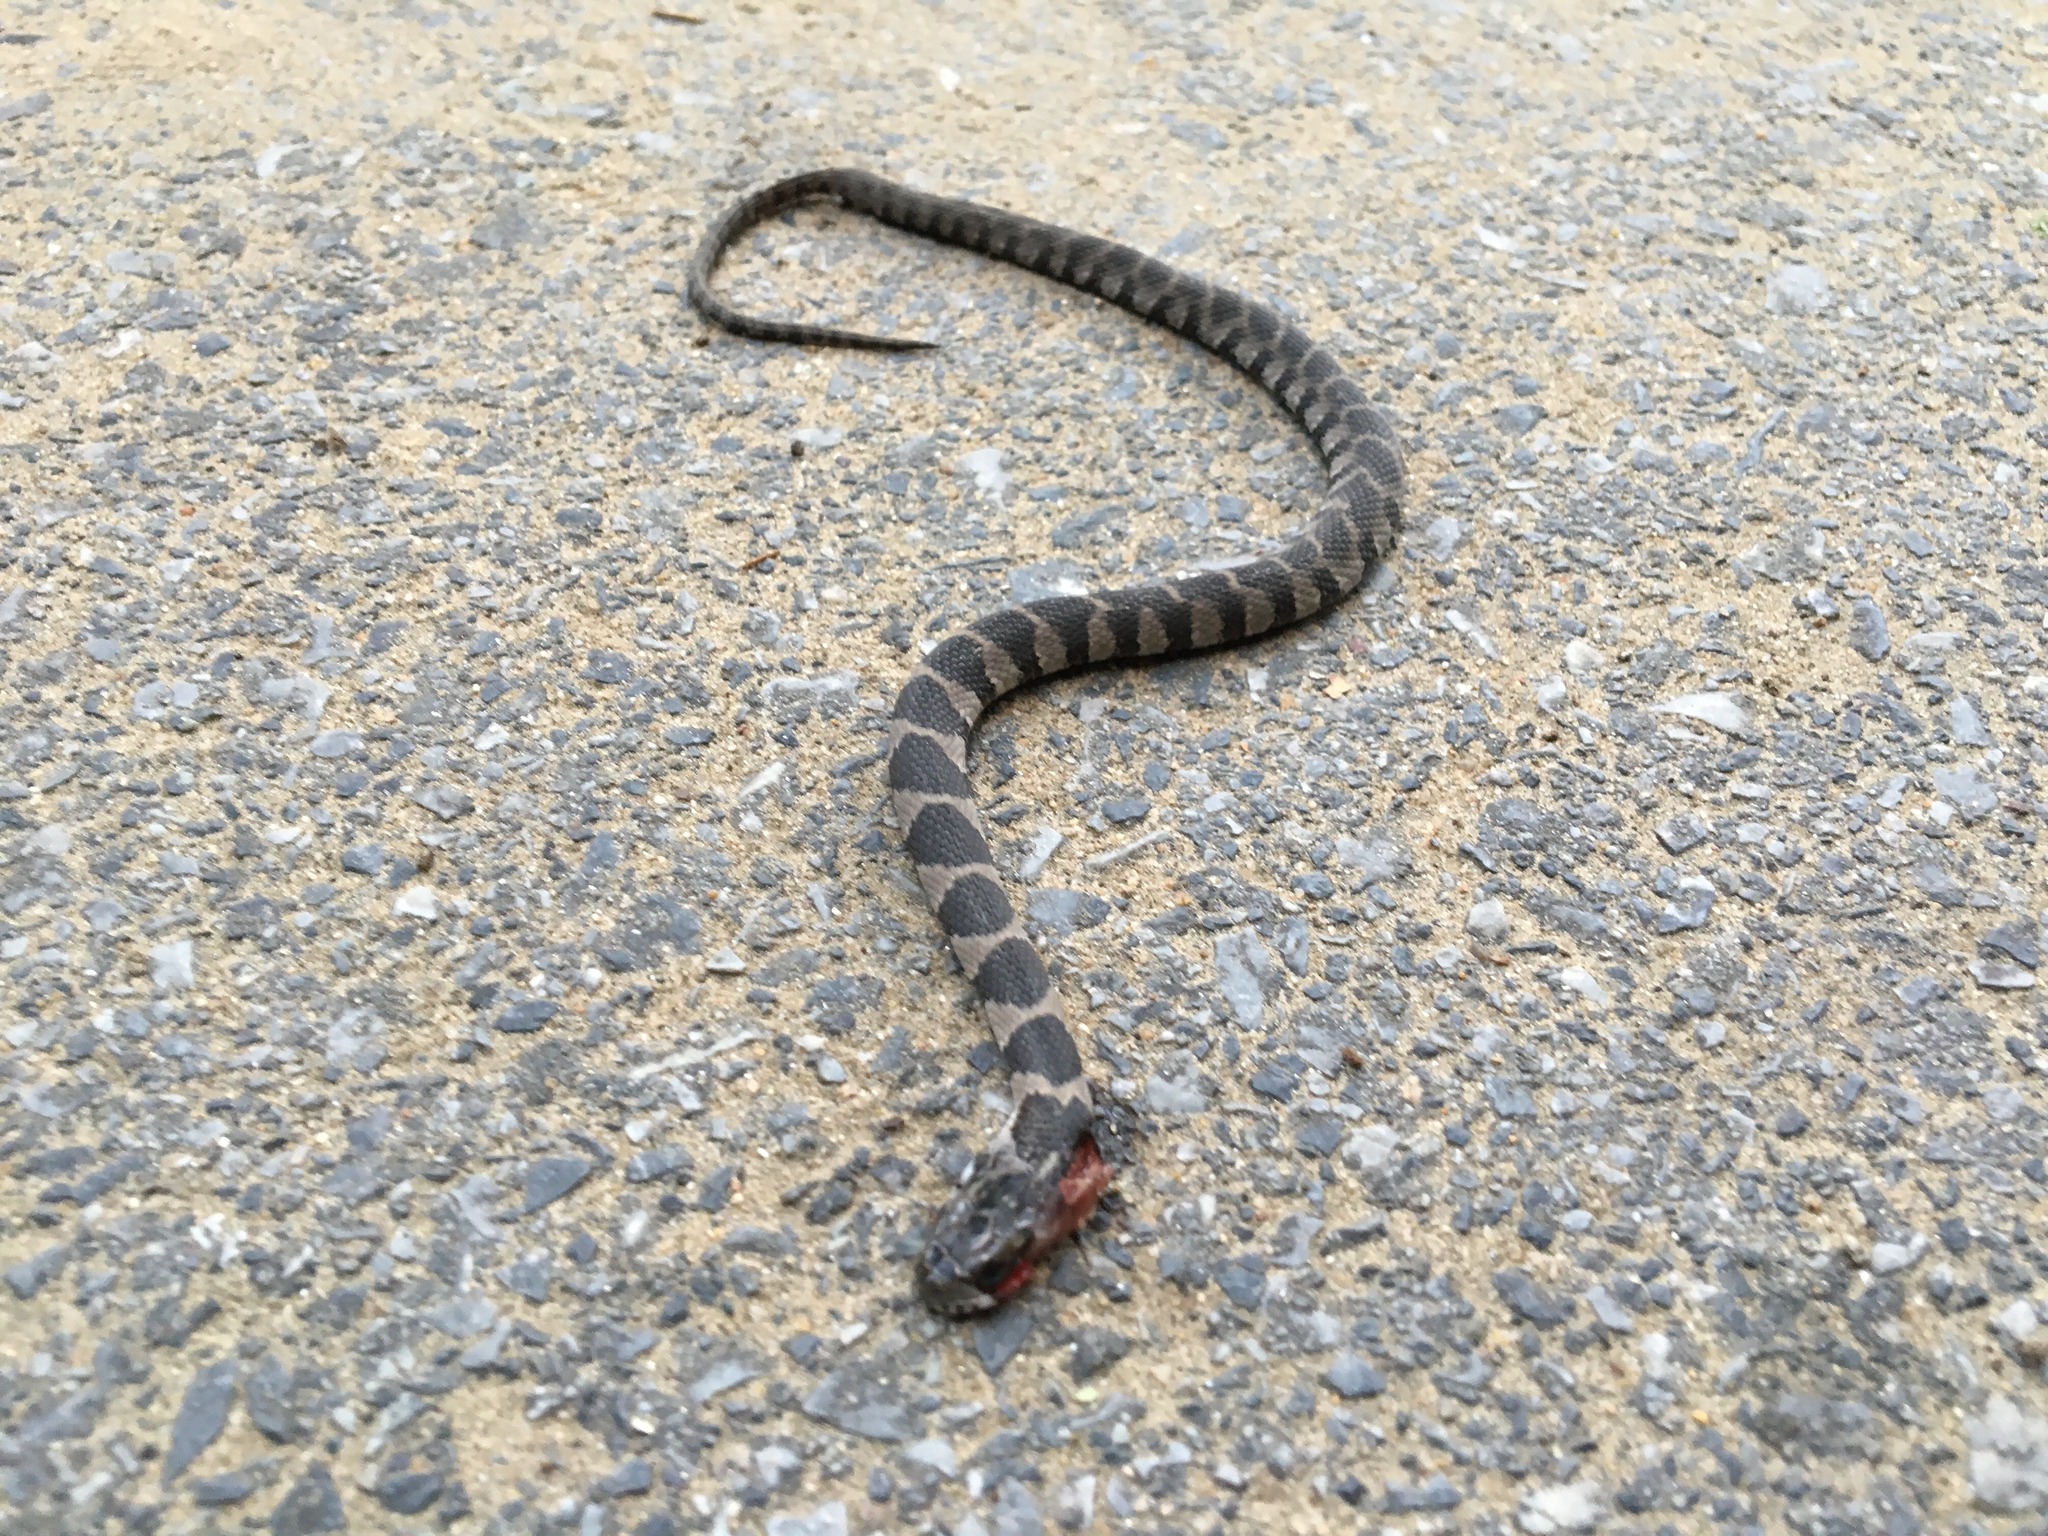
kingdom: Animalia
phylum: Chordata
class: Squamata
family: Colubridae
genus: Nerodia
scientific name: Nerodia sipedon
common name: Northern water snake
